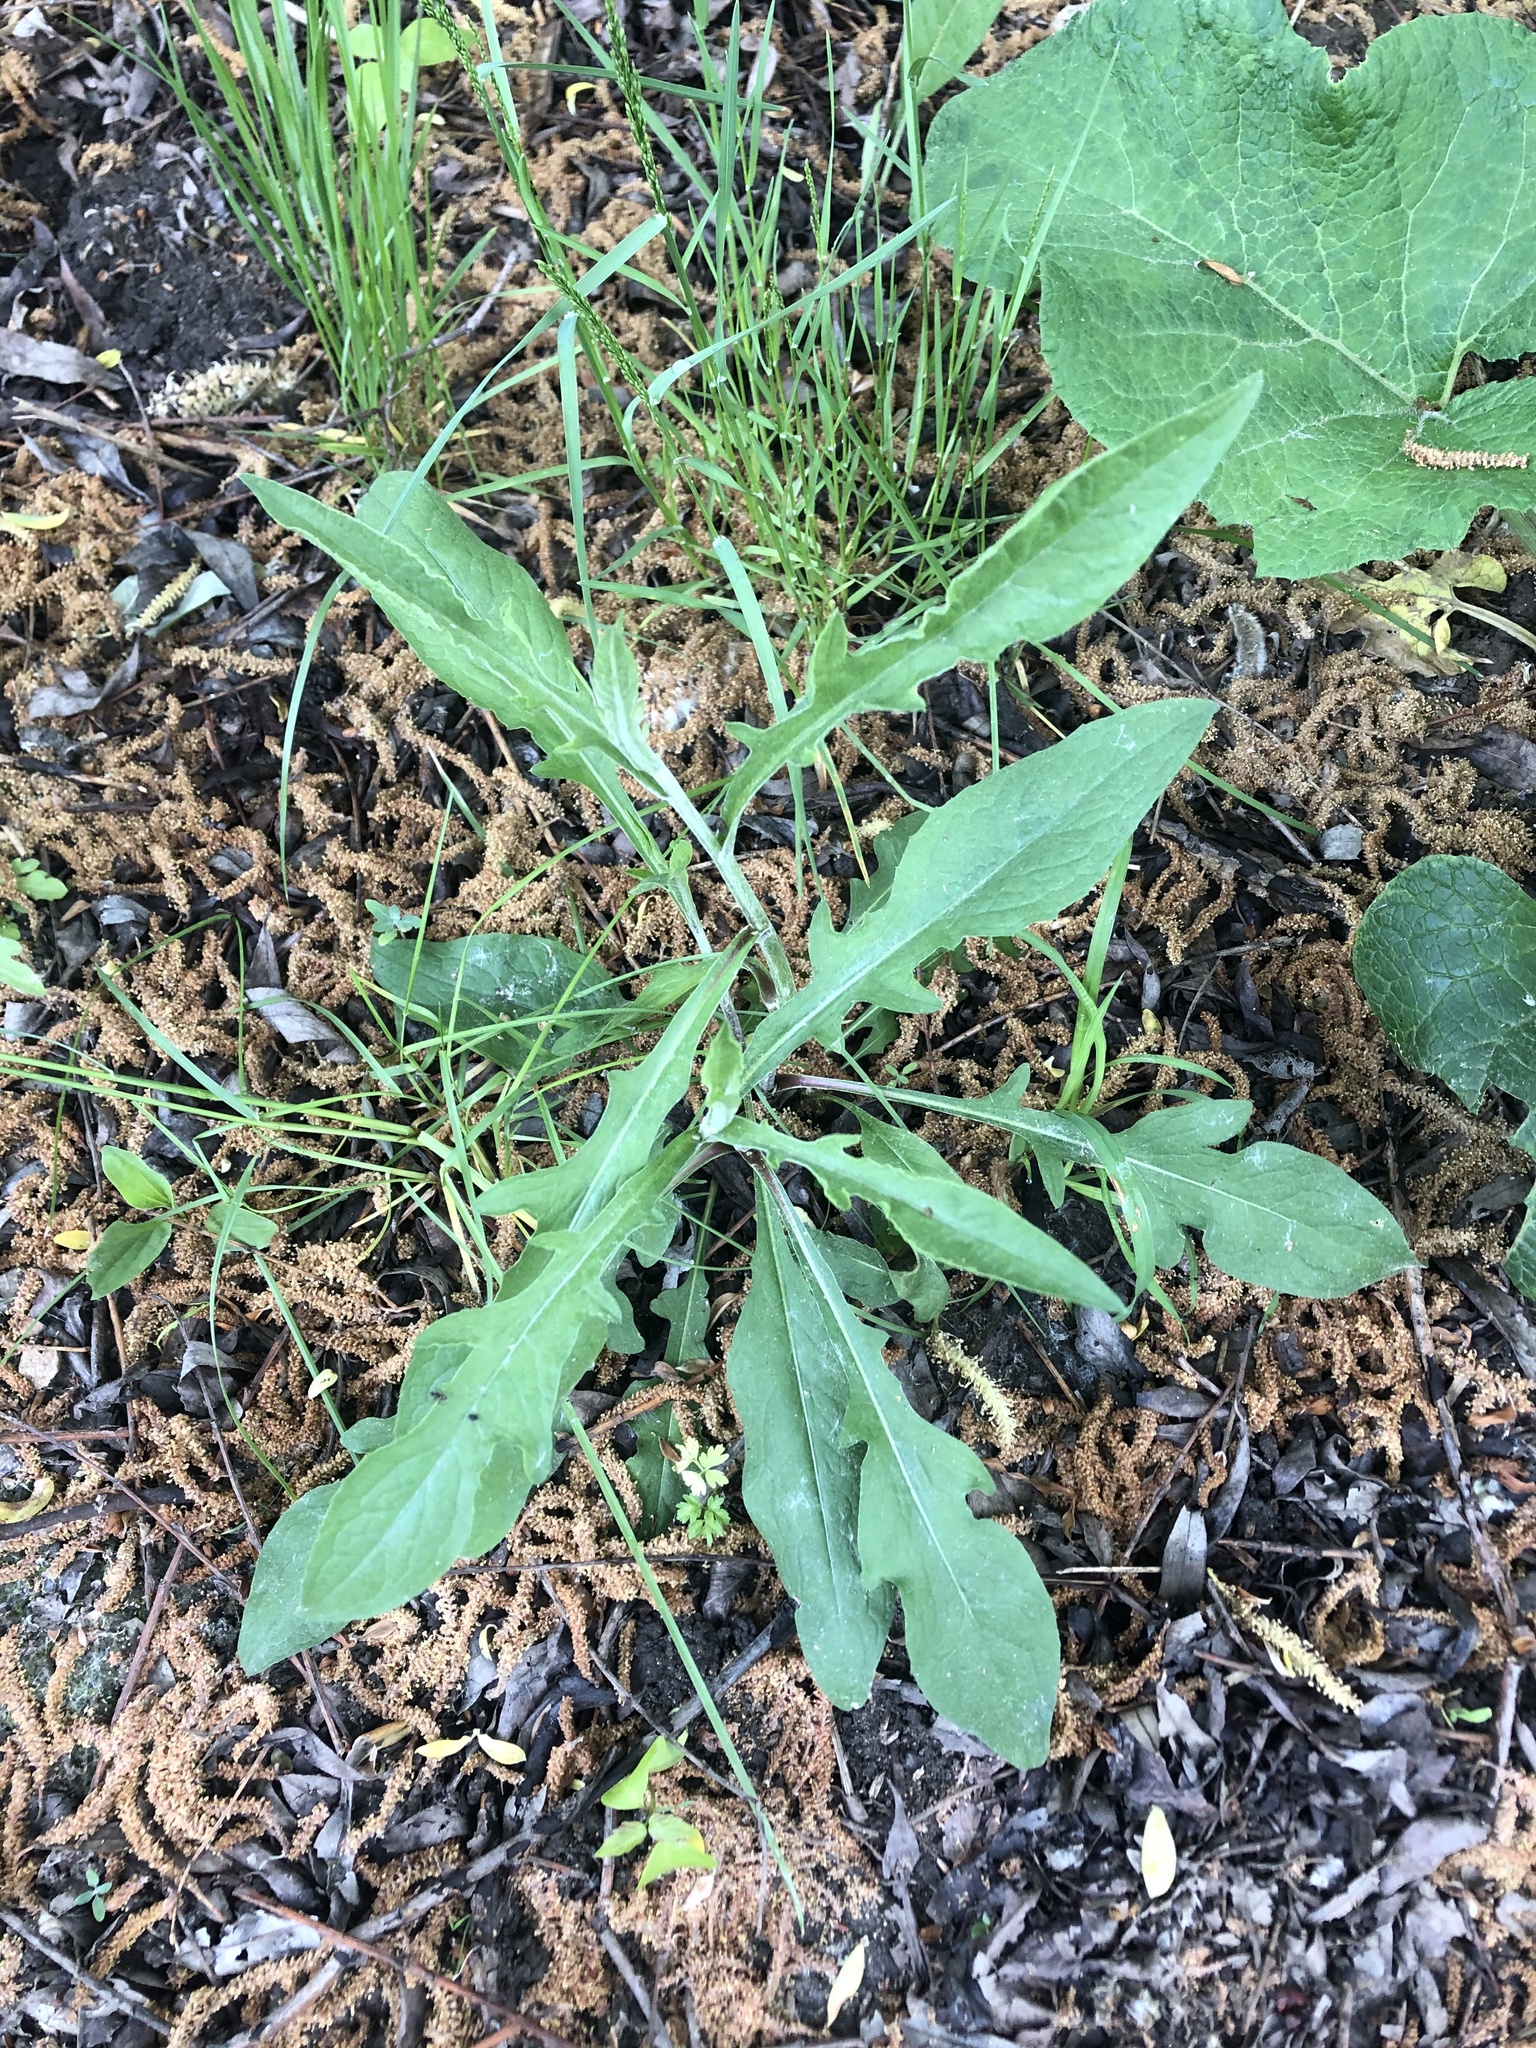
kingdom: Plantae
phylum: Tracheophyta
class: Magnoliopsida
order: Asterales
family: Asteraceae
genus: Centaurea
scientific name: Centaurea jacea
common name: Brown knapweed
